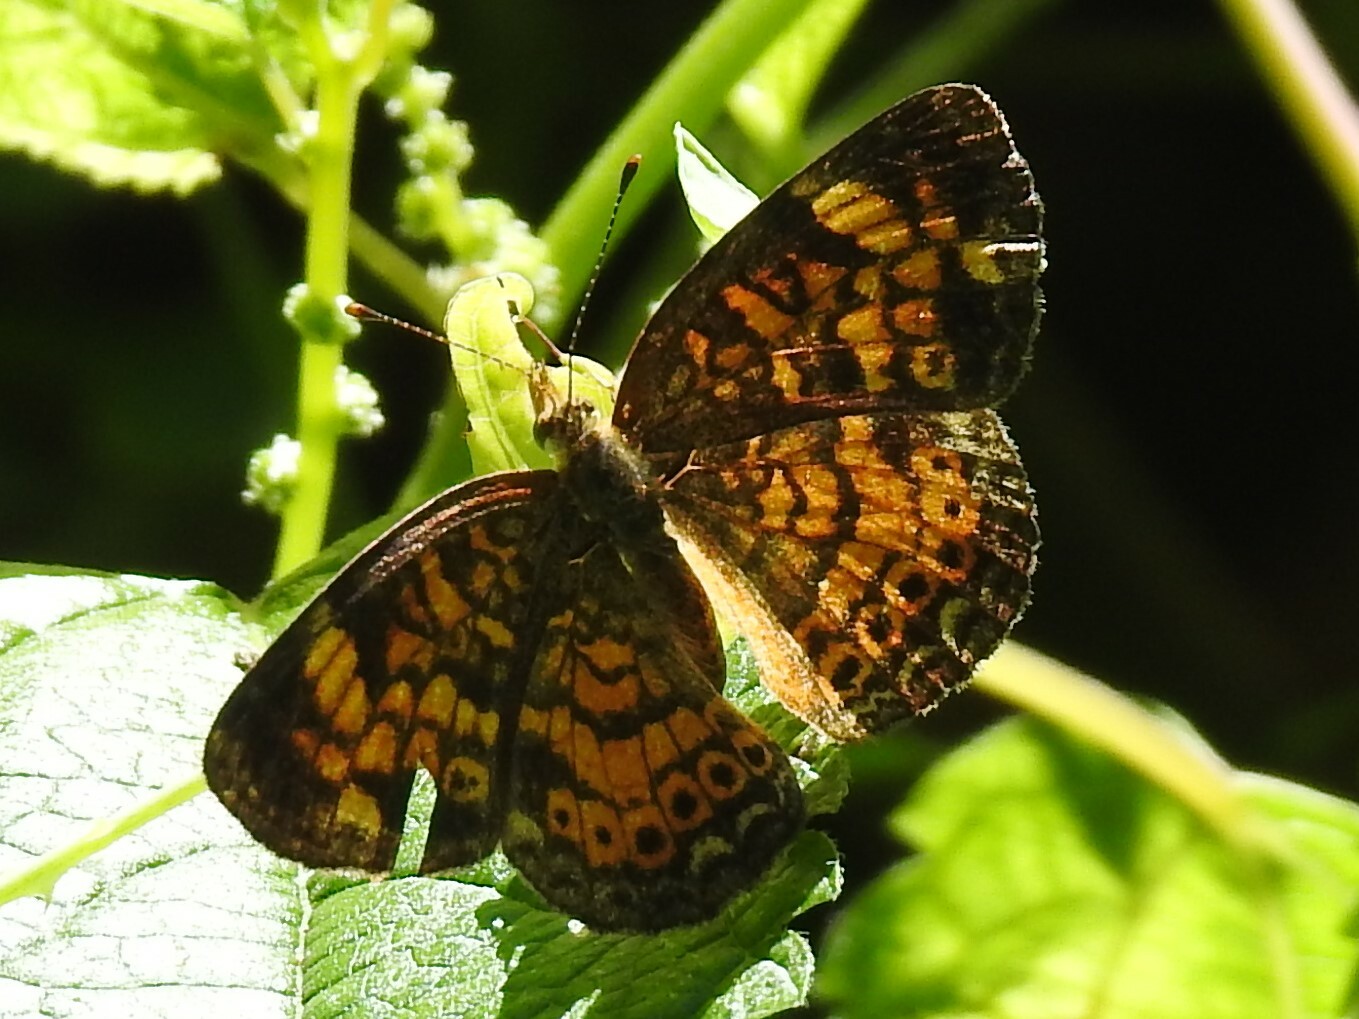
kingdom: Animalia
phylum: Arthropoda
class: Insecta
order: Lepidoptera
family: Nymphalidae
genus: Phyciodes
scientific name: Phyciodes tharos
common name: Pearl crescent
